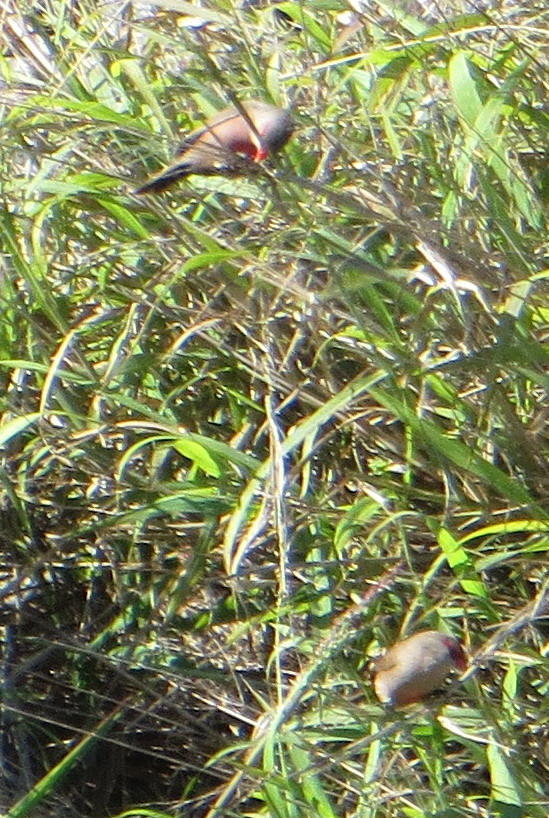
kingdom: Animalia
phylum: Chordata
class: Aves
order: Passeriformes
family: Estrildidae
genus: Estrilda
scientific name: Estrilda astrild
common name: Common waxbill
